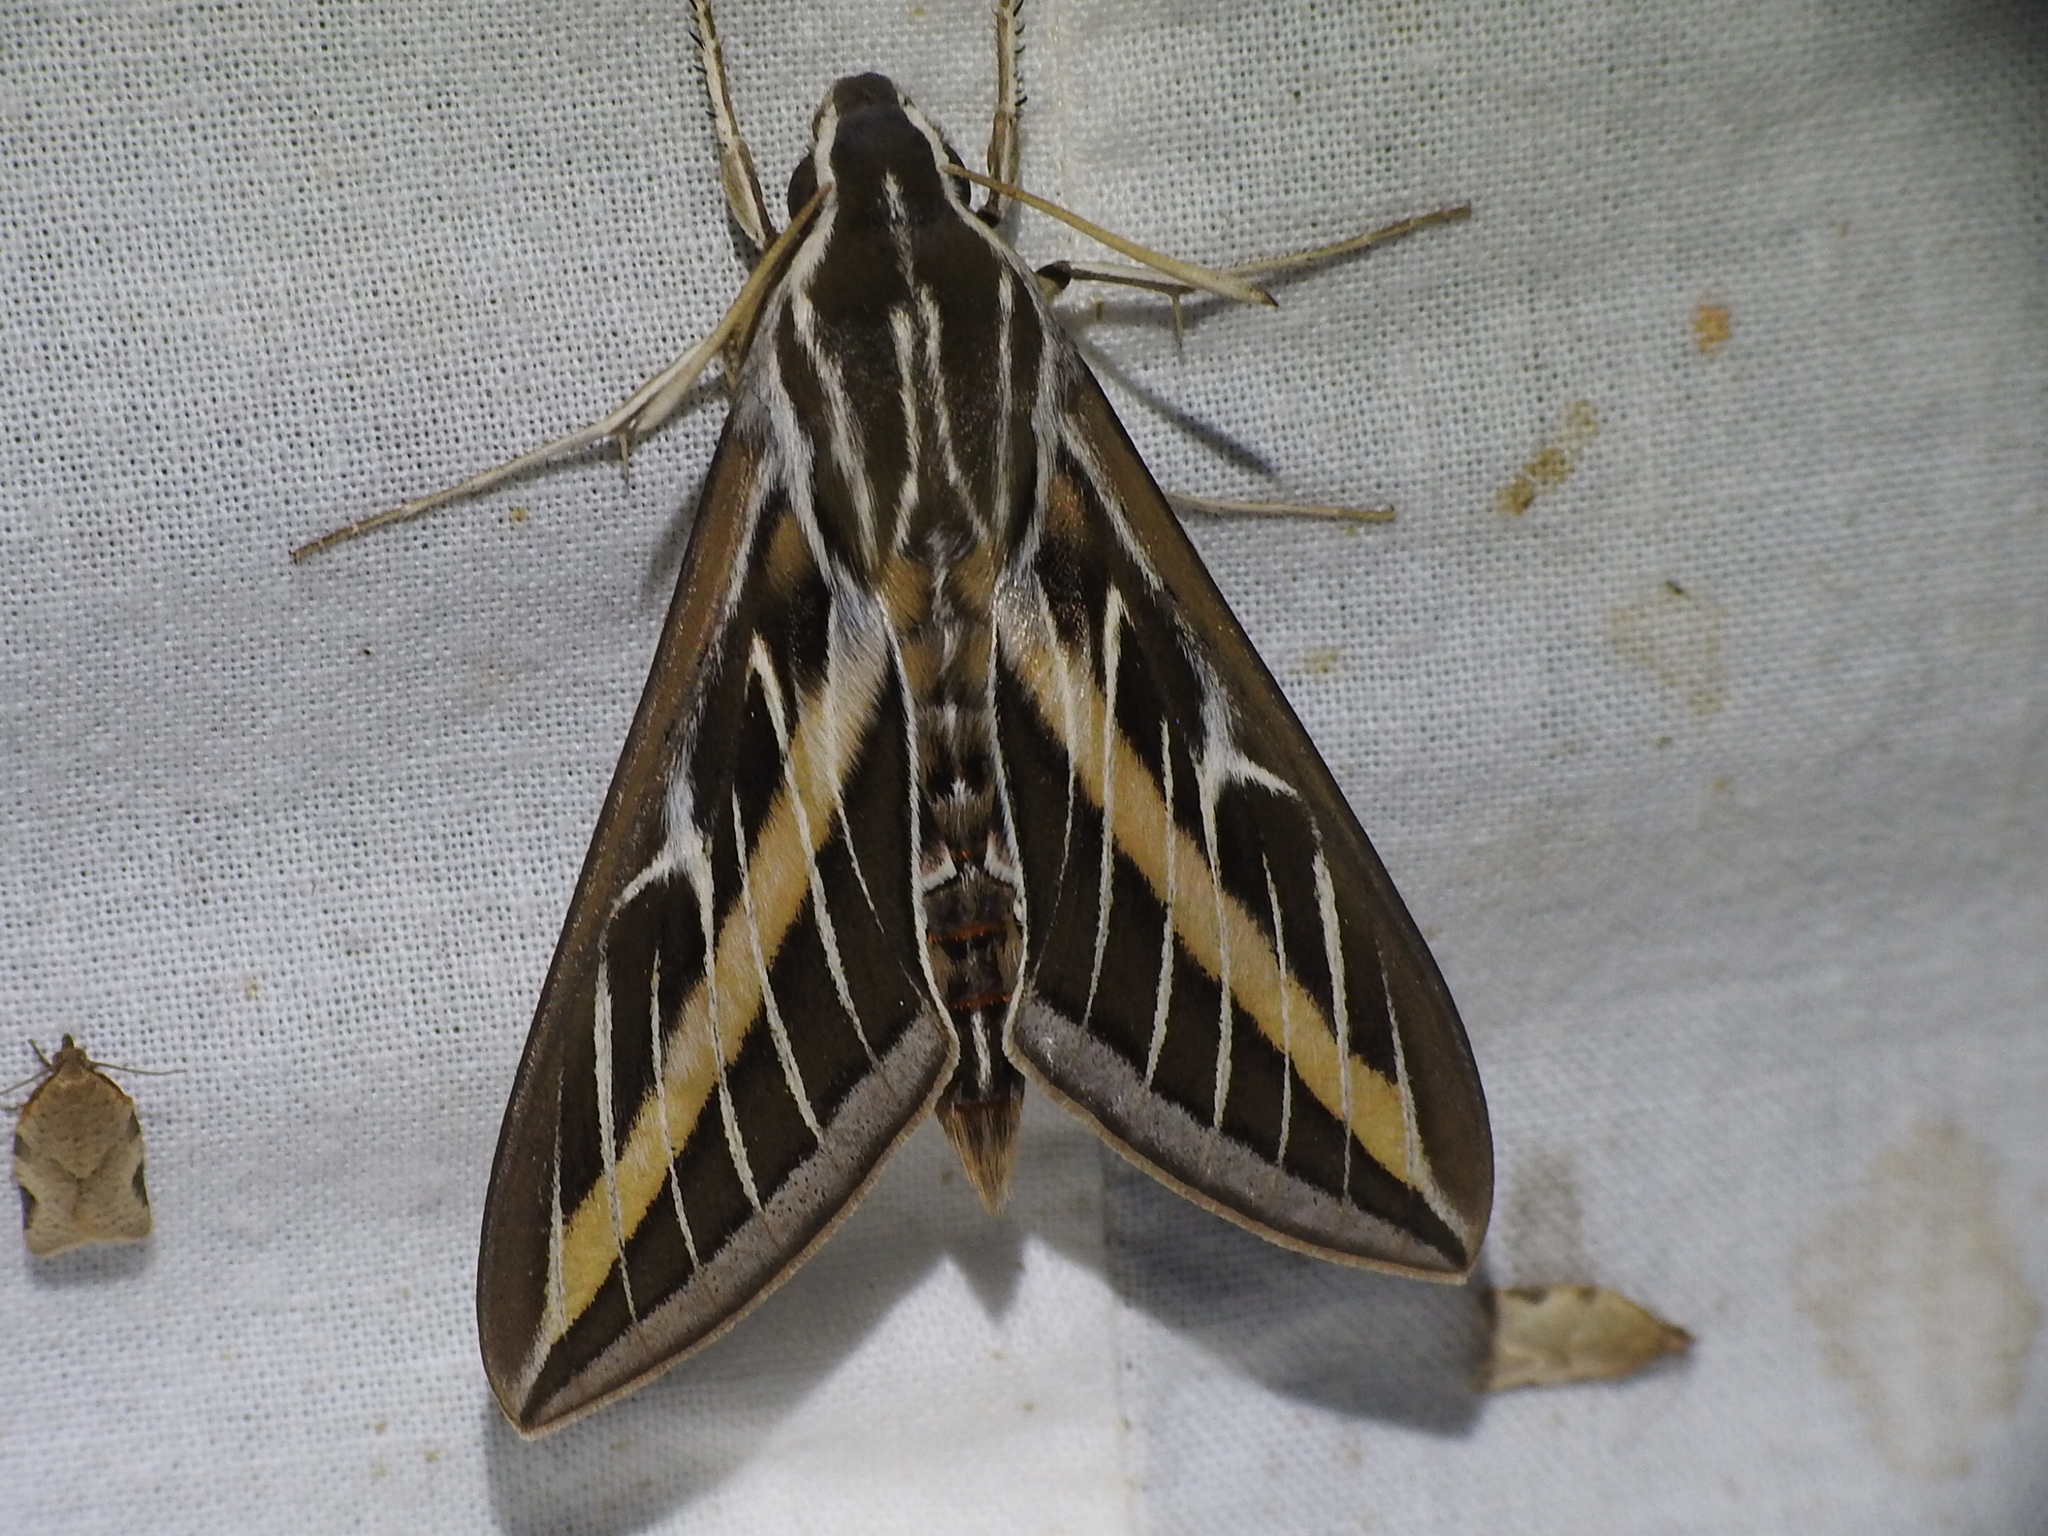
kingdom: Animalia
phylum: Arthropoda
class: Insecta
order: Lepidoptera
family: Sphingidae
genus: Hyles
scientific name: Hyles lineata
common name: White-lined sphinx
